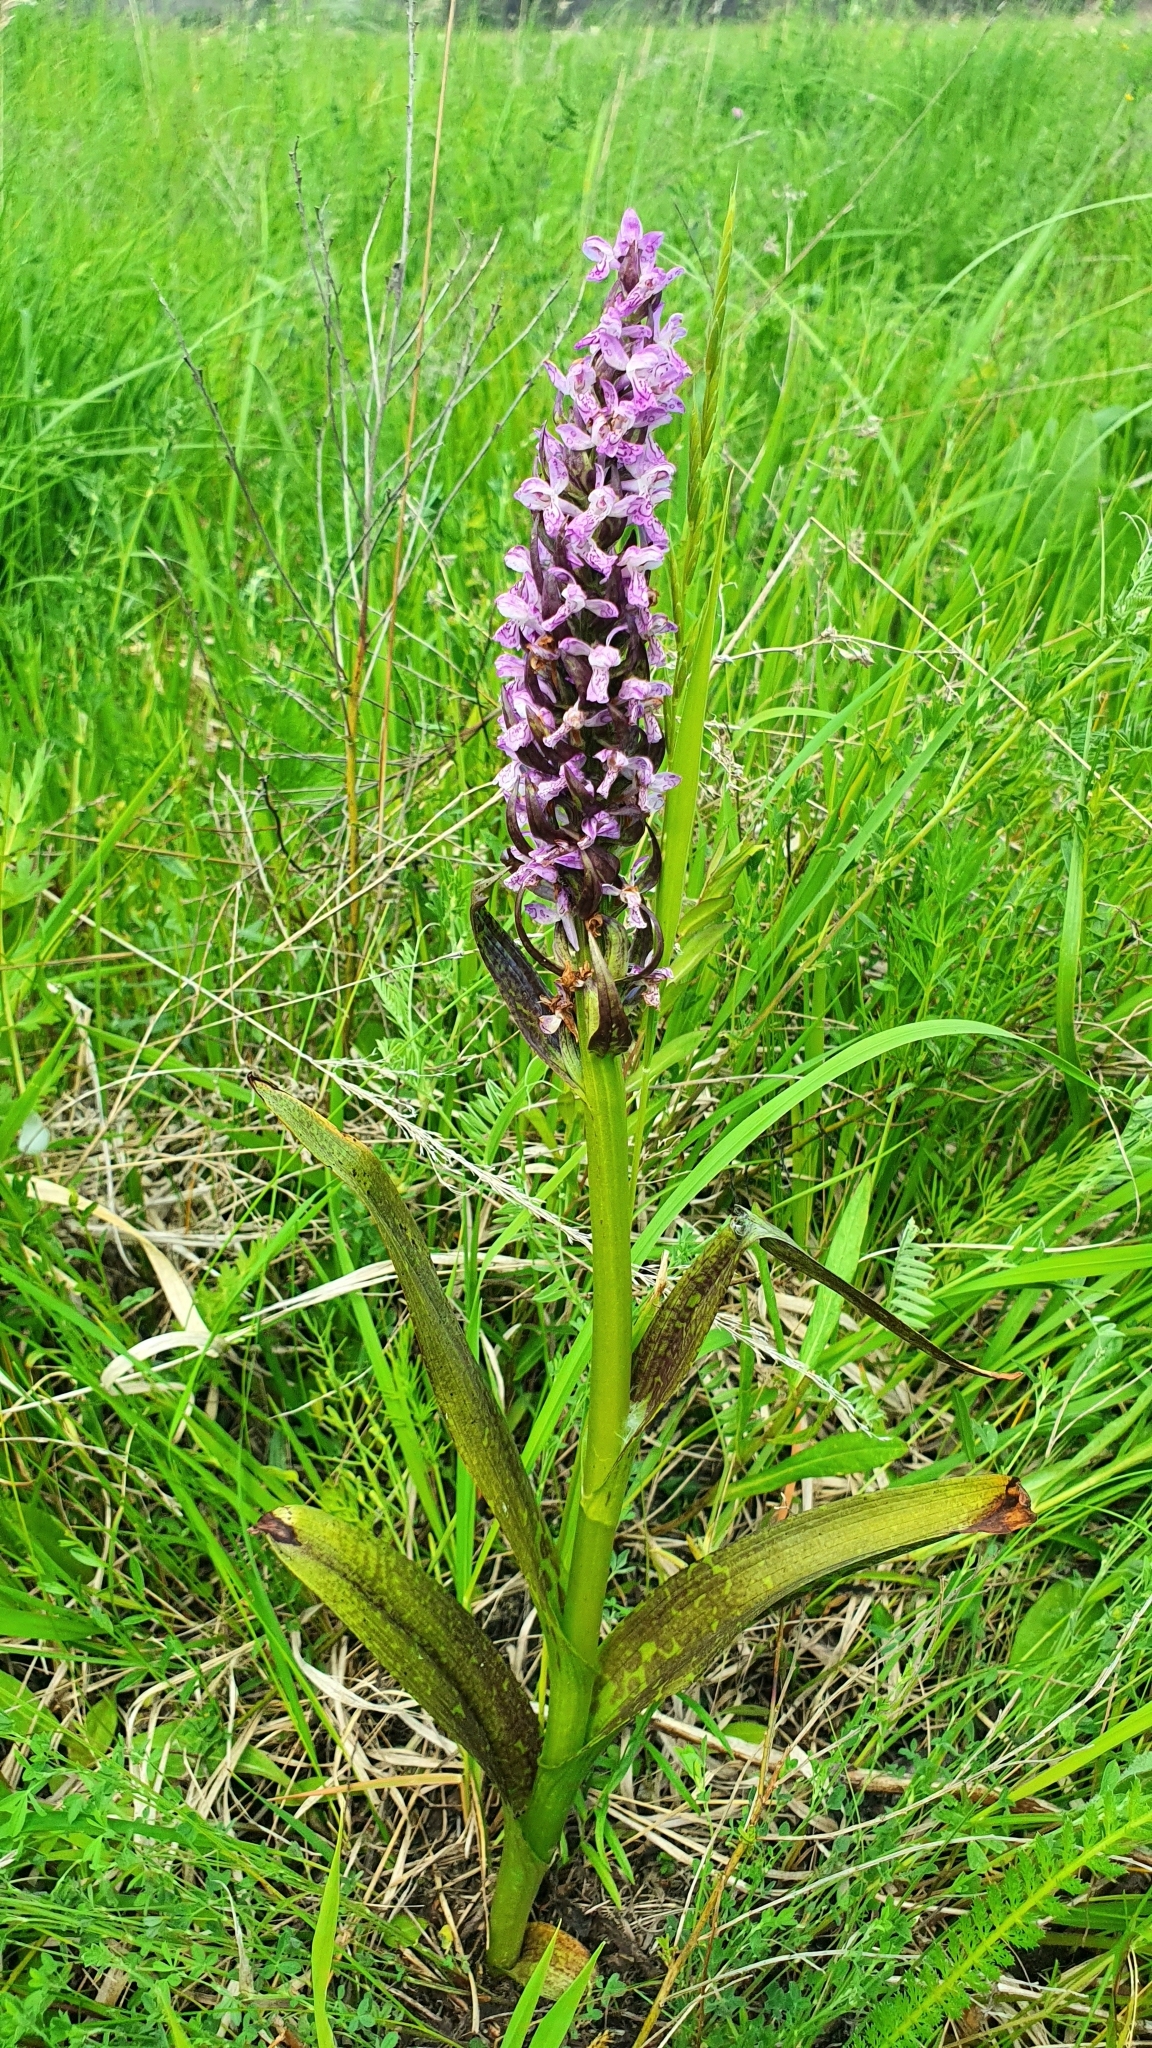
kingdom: Plantae
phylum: Tracheophyta
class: Liliopsida
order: Asparagales
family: Orchidaceae
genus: Dactylorhiza
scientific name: Dactylorhiza incarnata
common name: Early marsh-orchid
